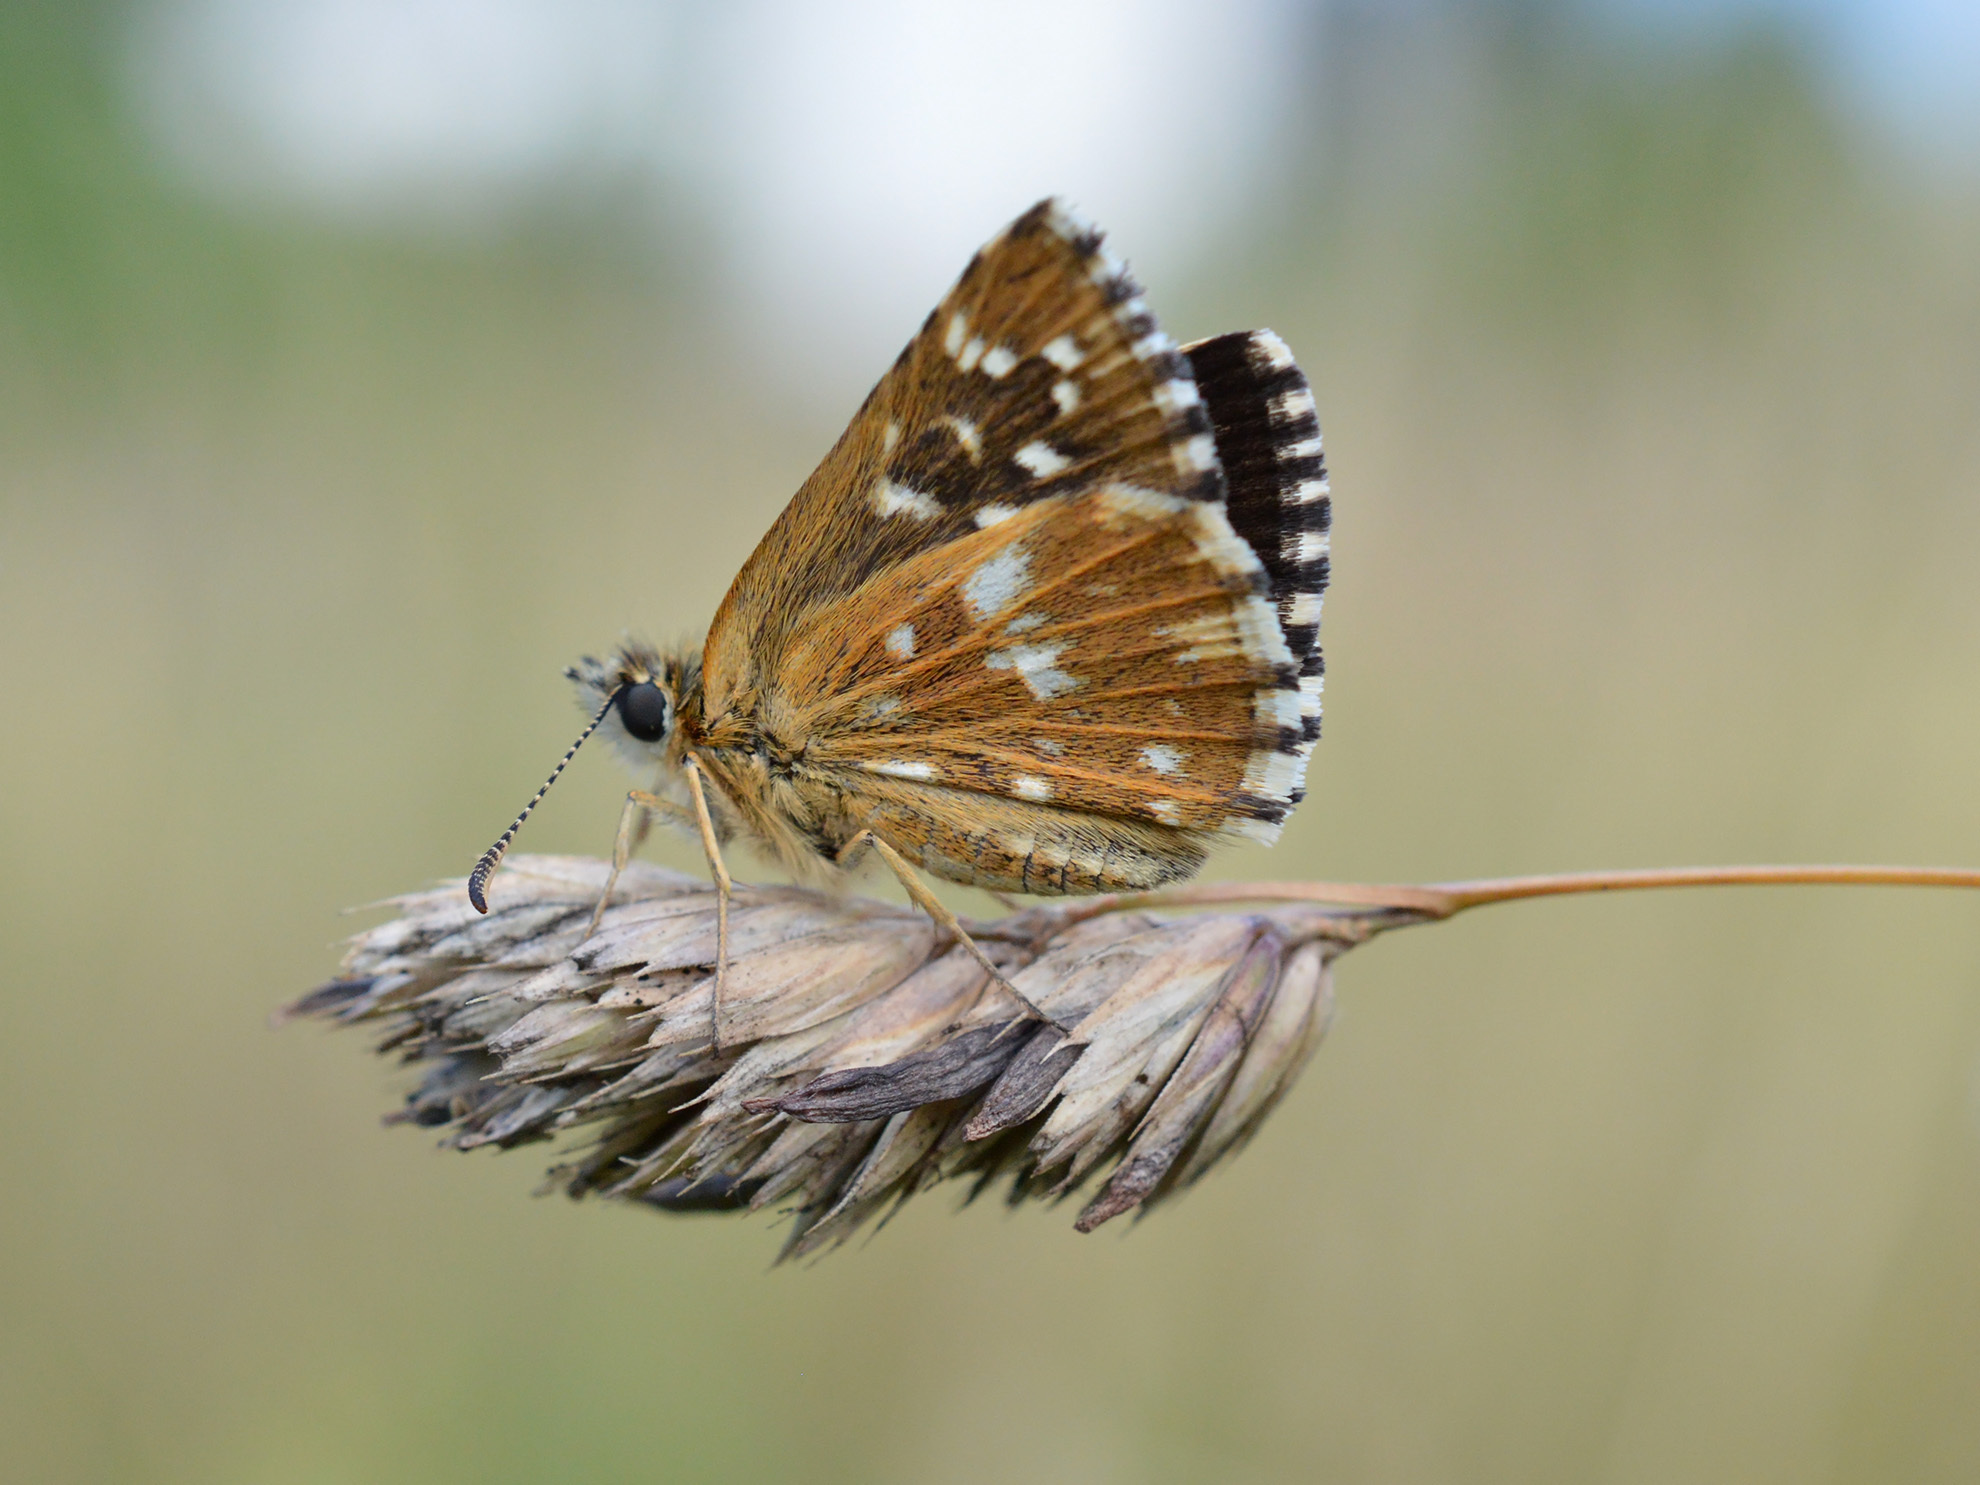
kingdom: Animalia
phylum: Arthropoda
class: Insecta
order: Lepidoptera
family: Hesperiidae
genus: Pyrgus
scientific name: Pyrgus malvae
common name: Grizzled skipper
